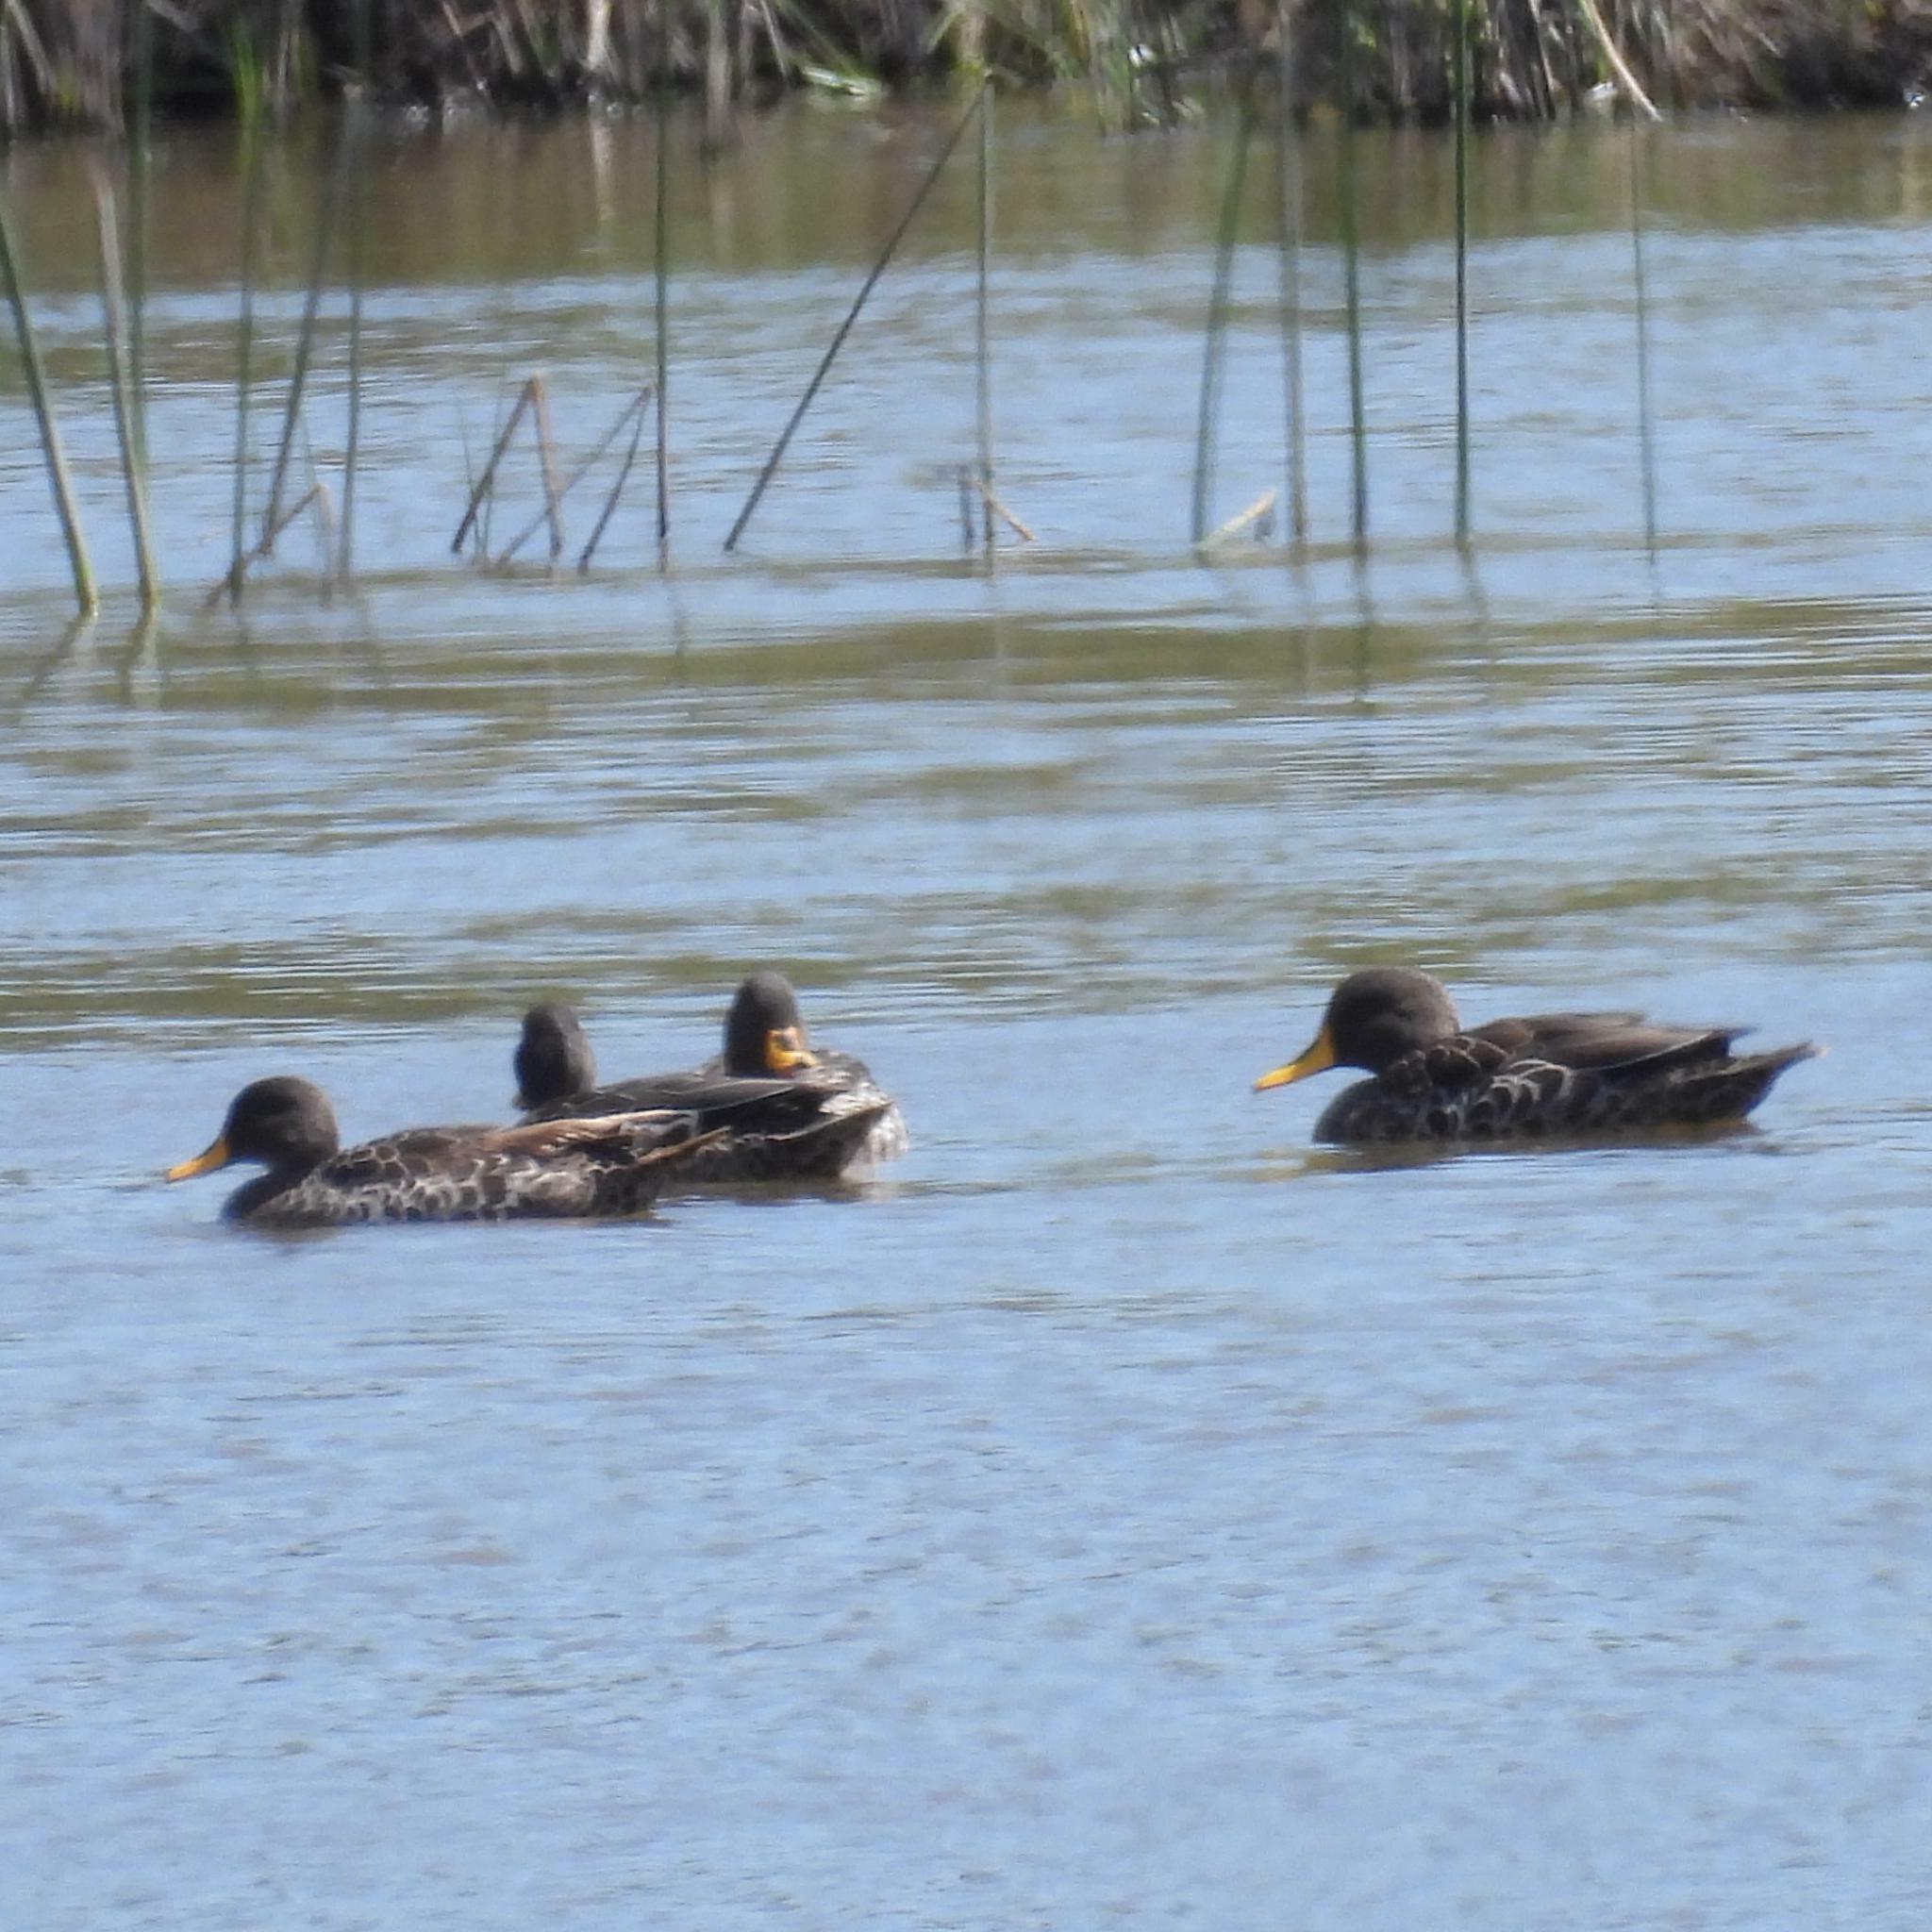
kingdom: Animalia
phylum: Chordata
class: Aves
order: Anseriformes
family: Anatidae
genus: Anas
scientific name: Anas undulata
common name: Yellow-billed duck
